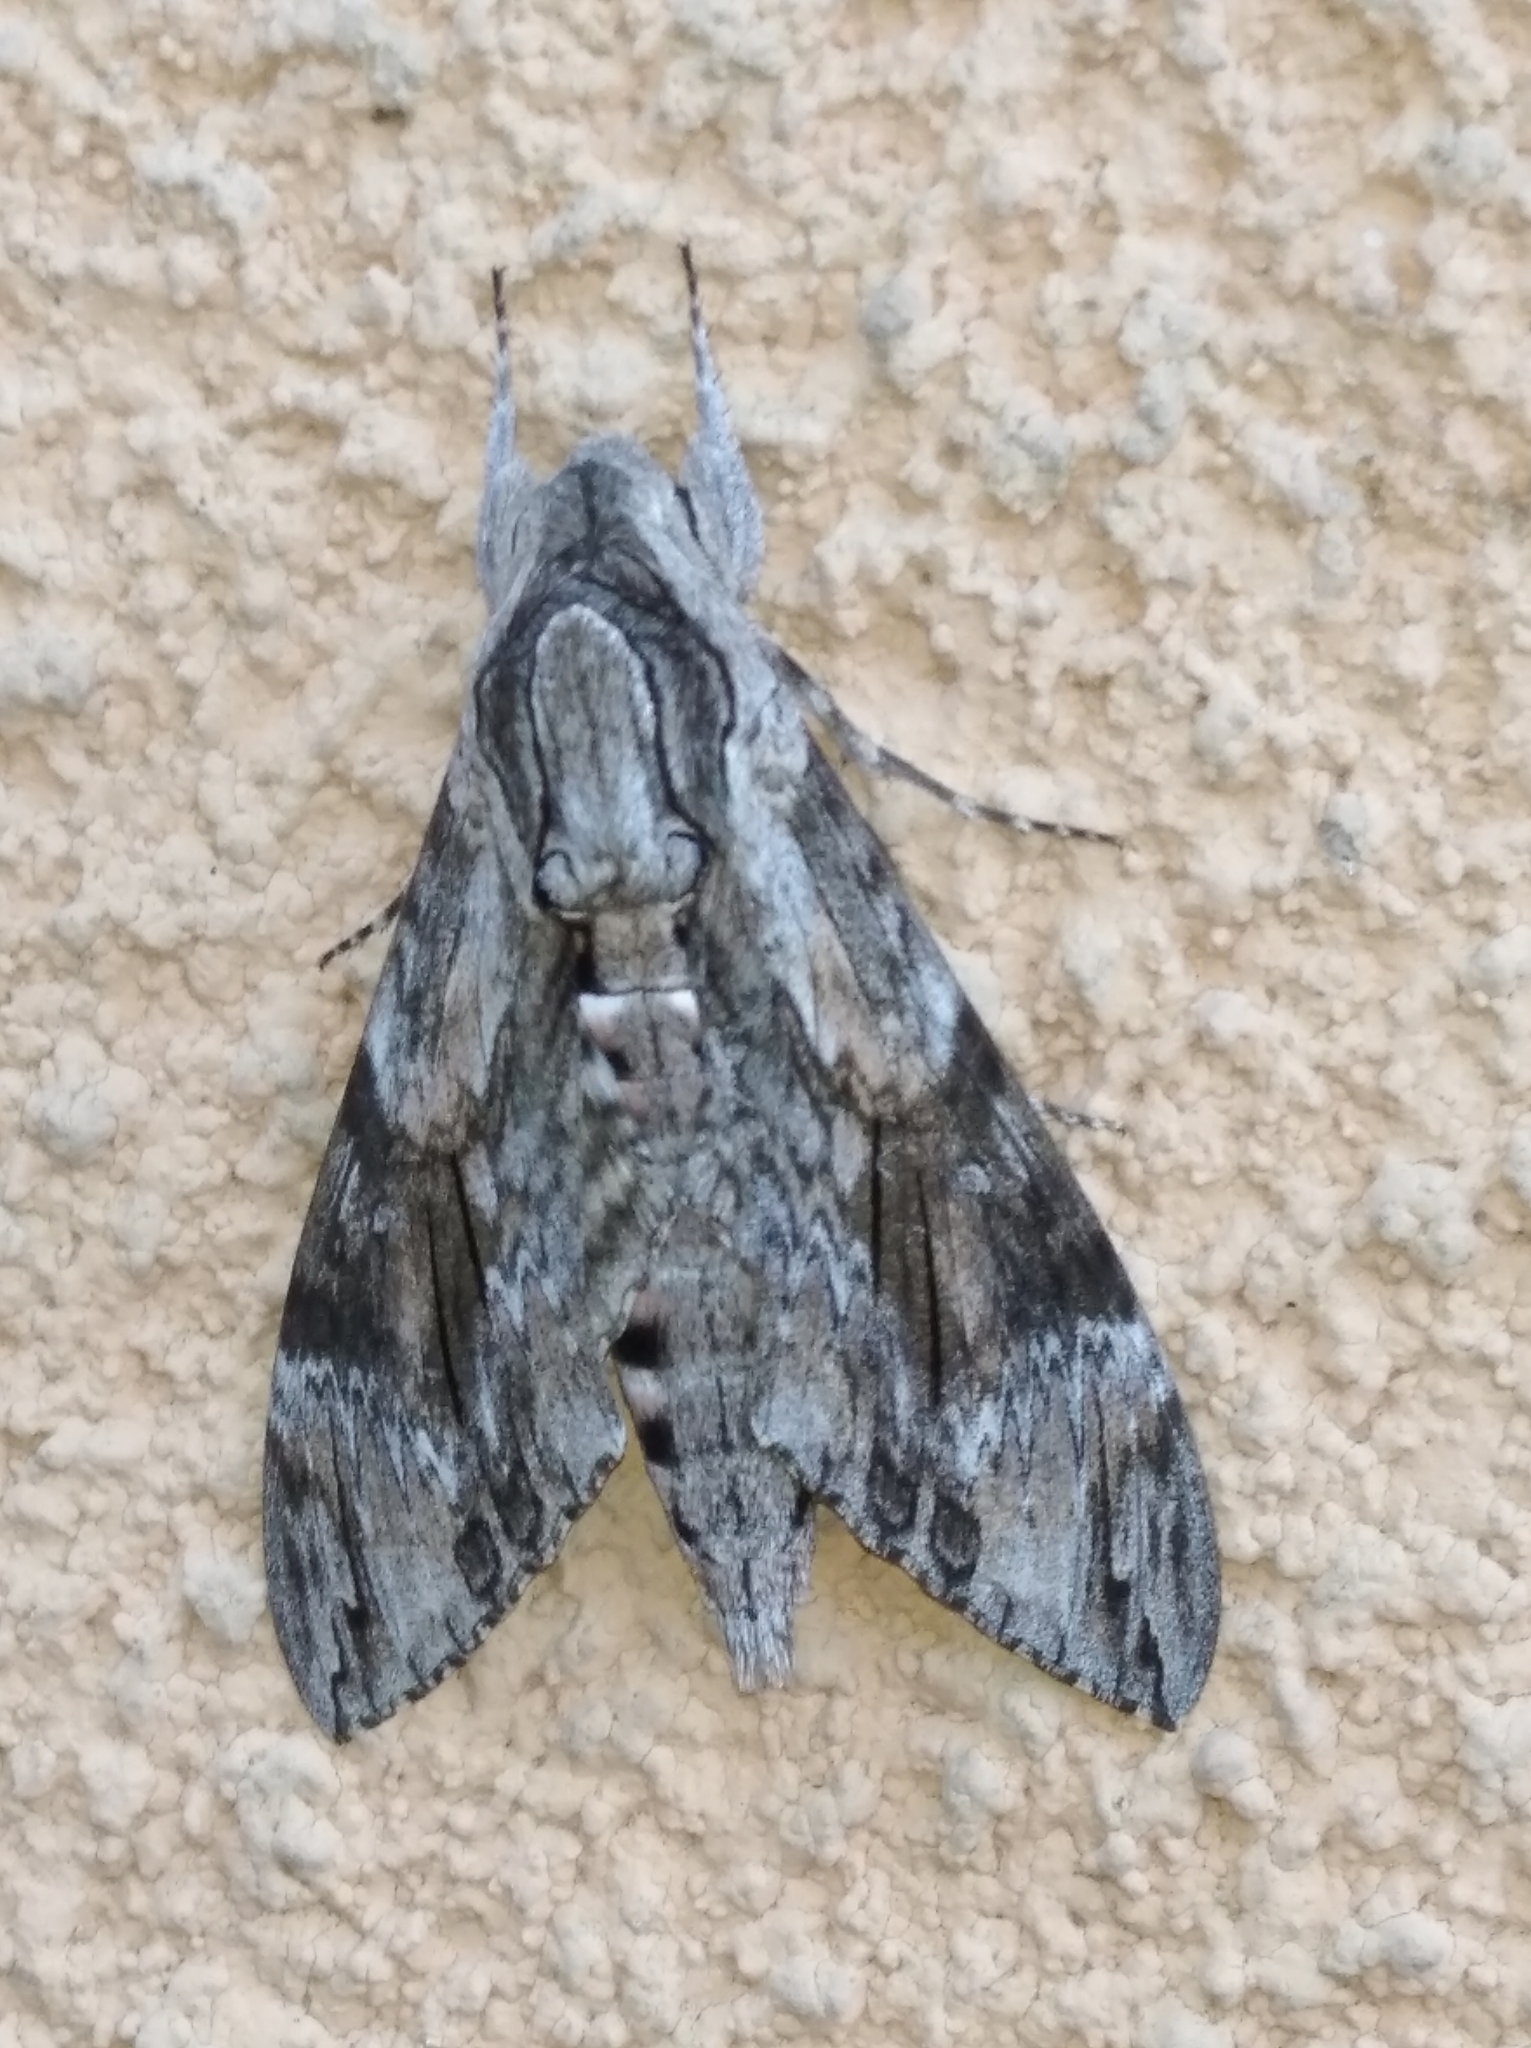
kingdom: Animalia
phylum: Arthropoda
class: Insecta
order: Lepidoptera
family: Sphingidae
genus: Agrius
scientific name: Agrius convolvuli
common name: Convolvulus hawkmoth
